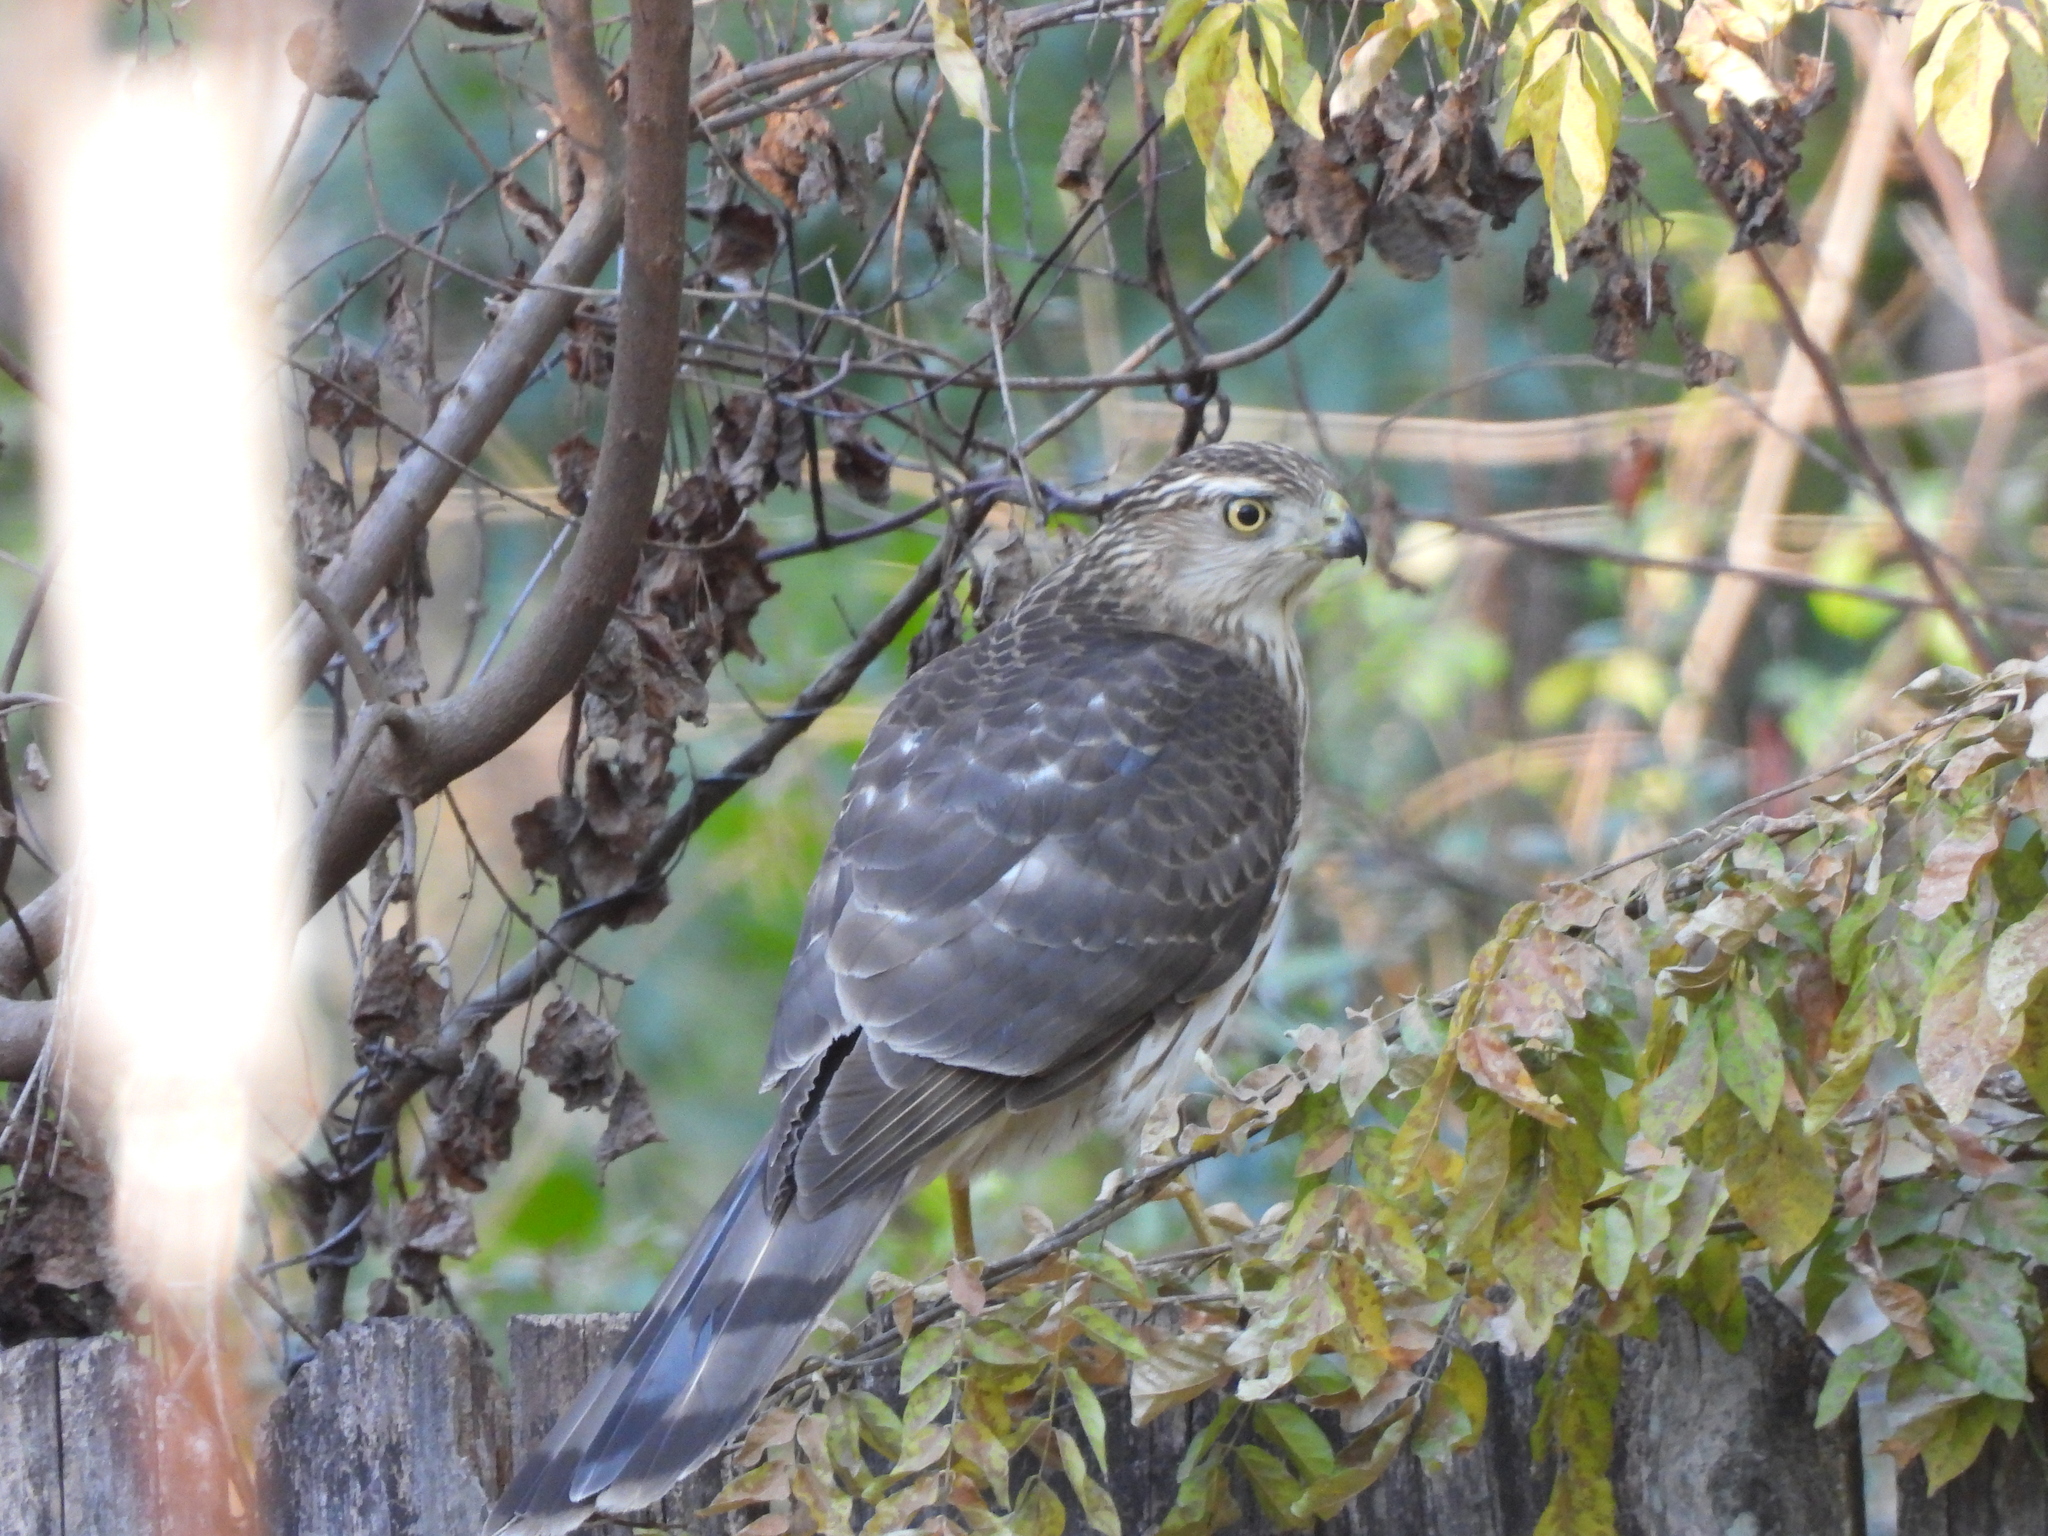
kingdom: Animalia
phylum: Chordata
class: Aves
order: Accipitriformes
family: Accipitridae
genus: Accipiter
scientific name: Accipiter cooperii
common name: Cooper's hawk
